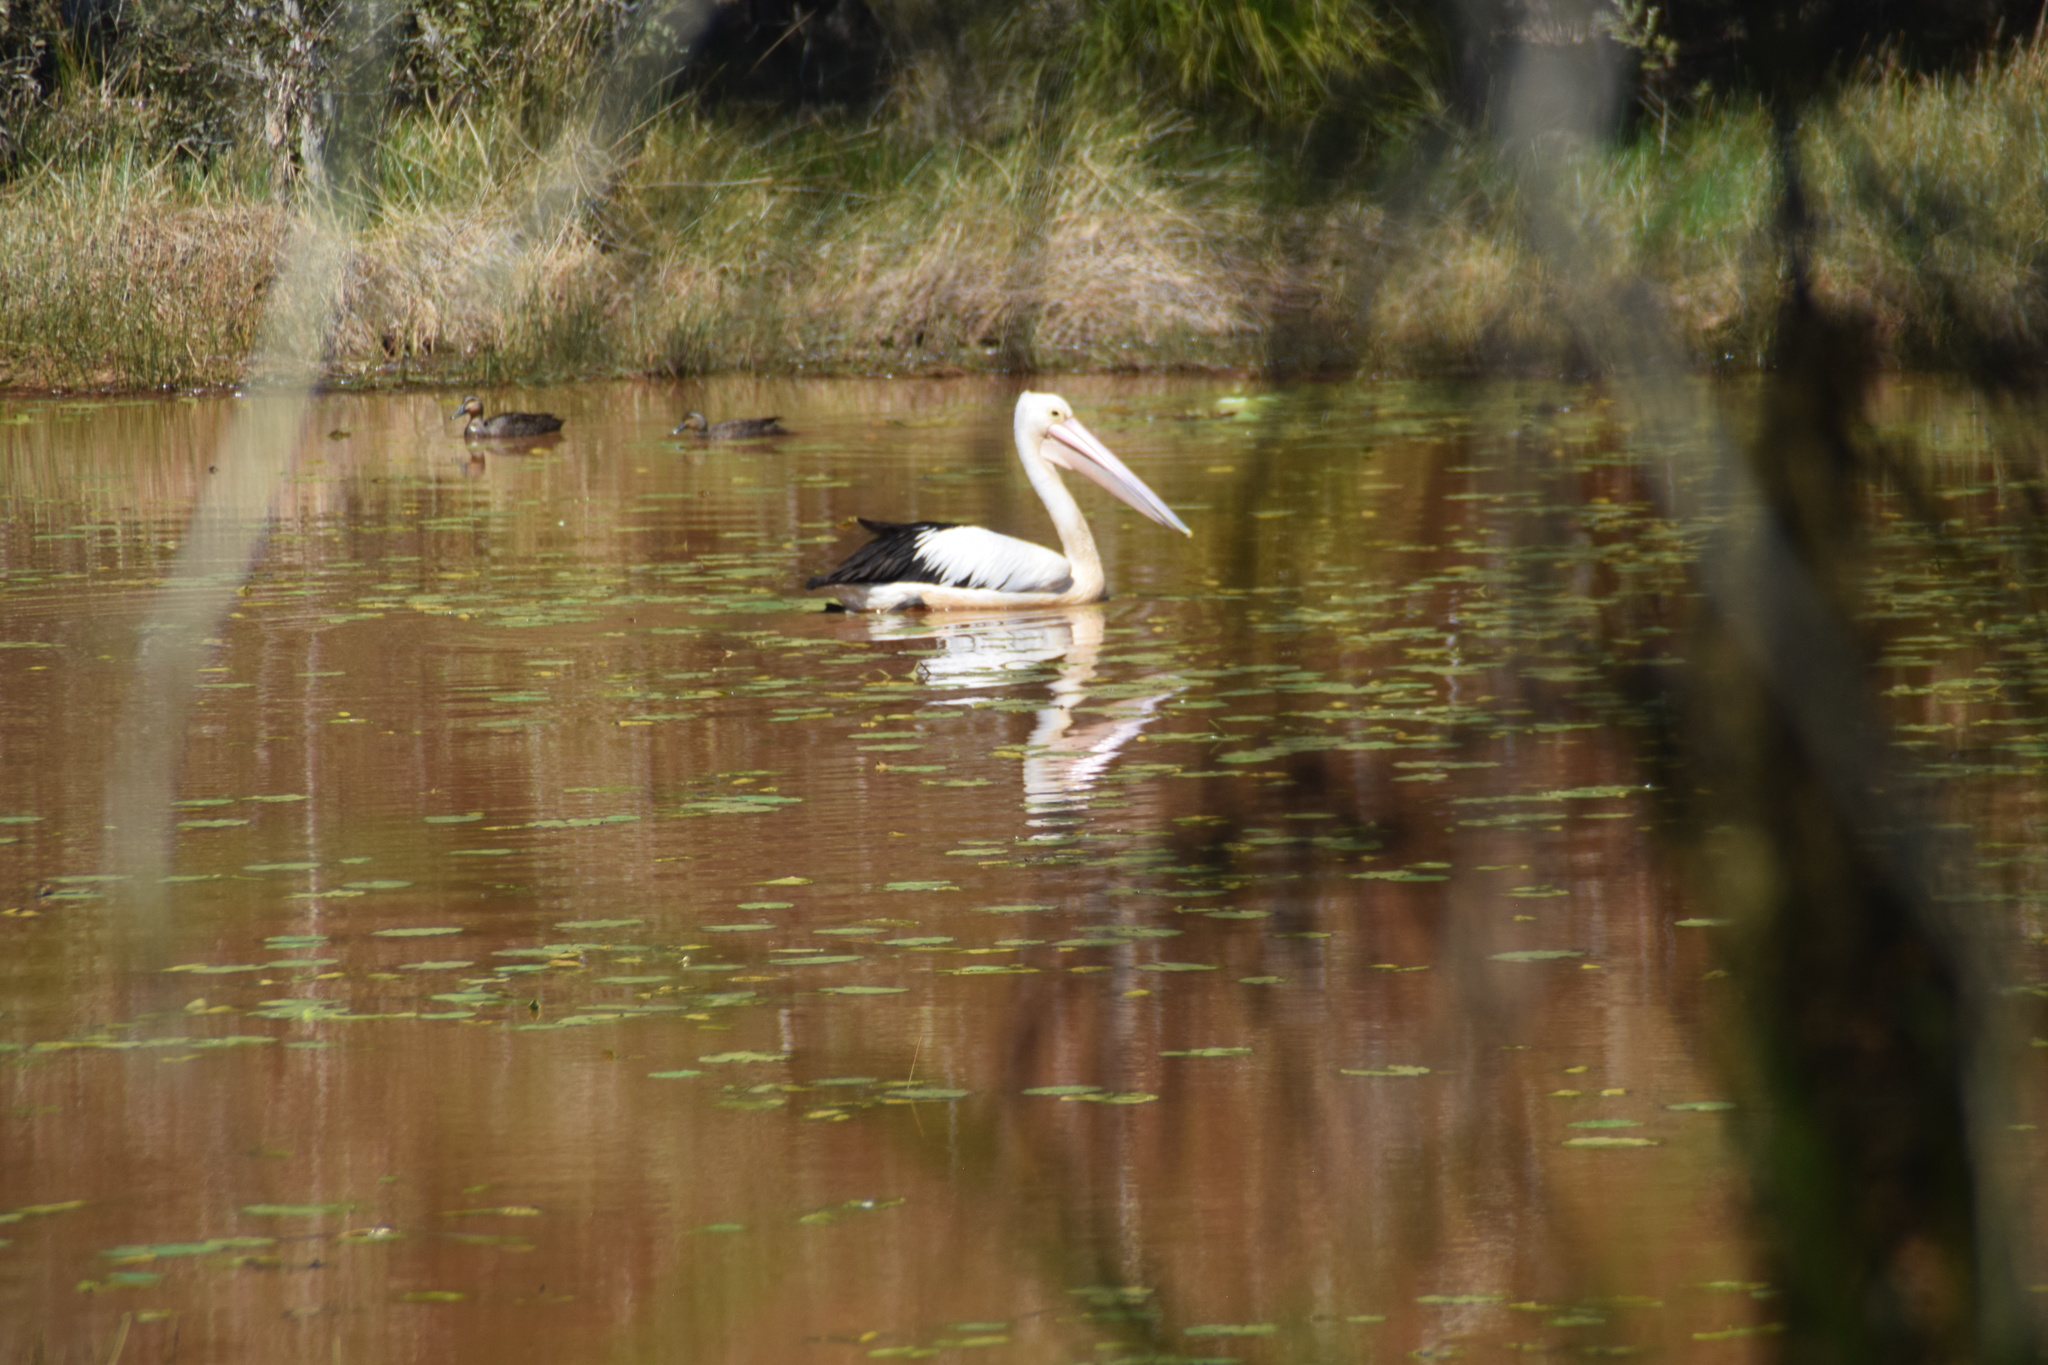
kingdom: Animalia
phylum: Chordata
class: Aves
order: Pelecaniformes
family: Pelecanidae
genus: Pelecanus
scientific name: Pelecanus conspicillatus
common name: Australian pelican
